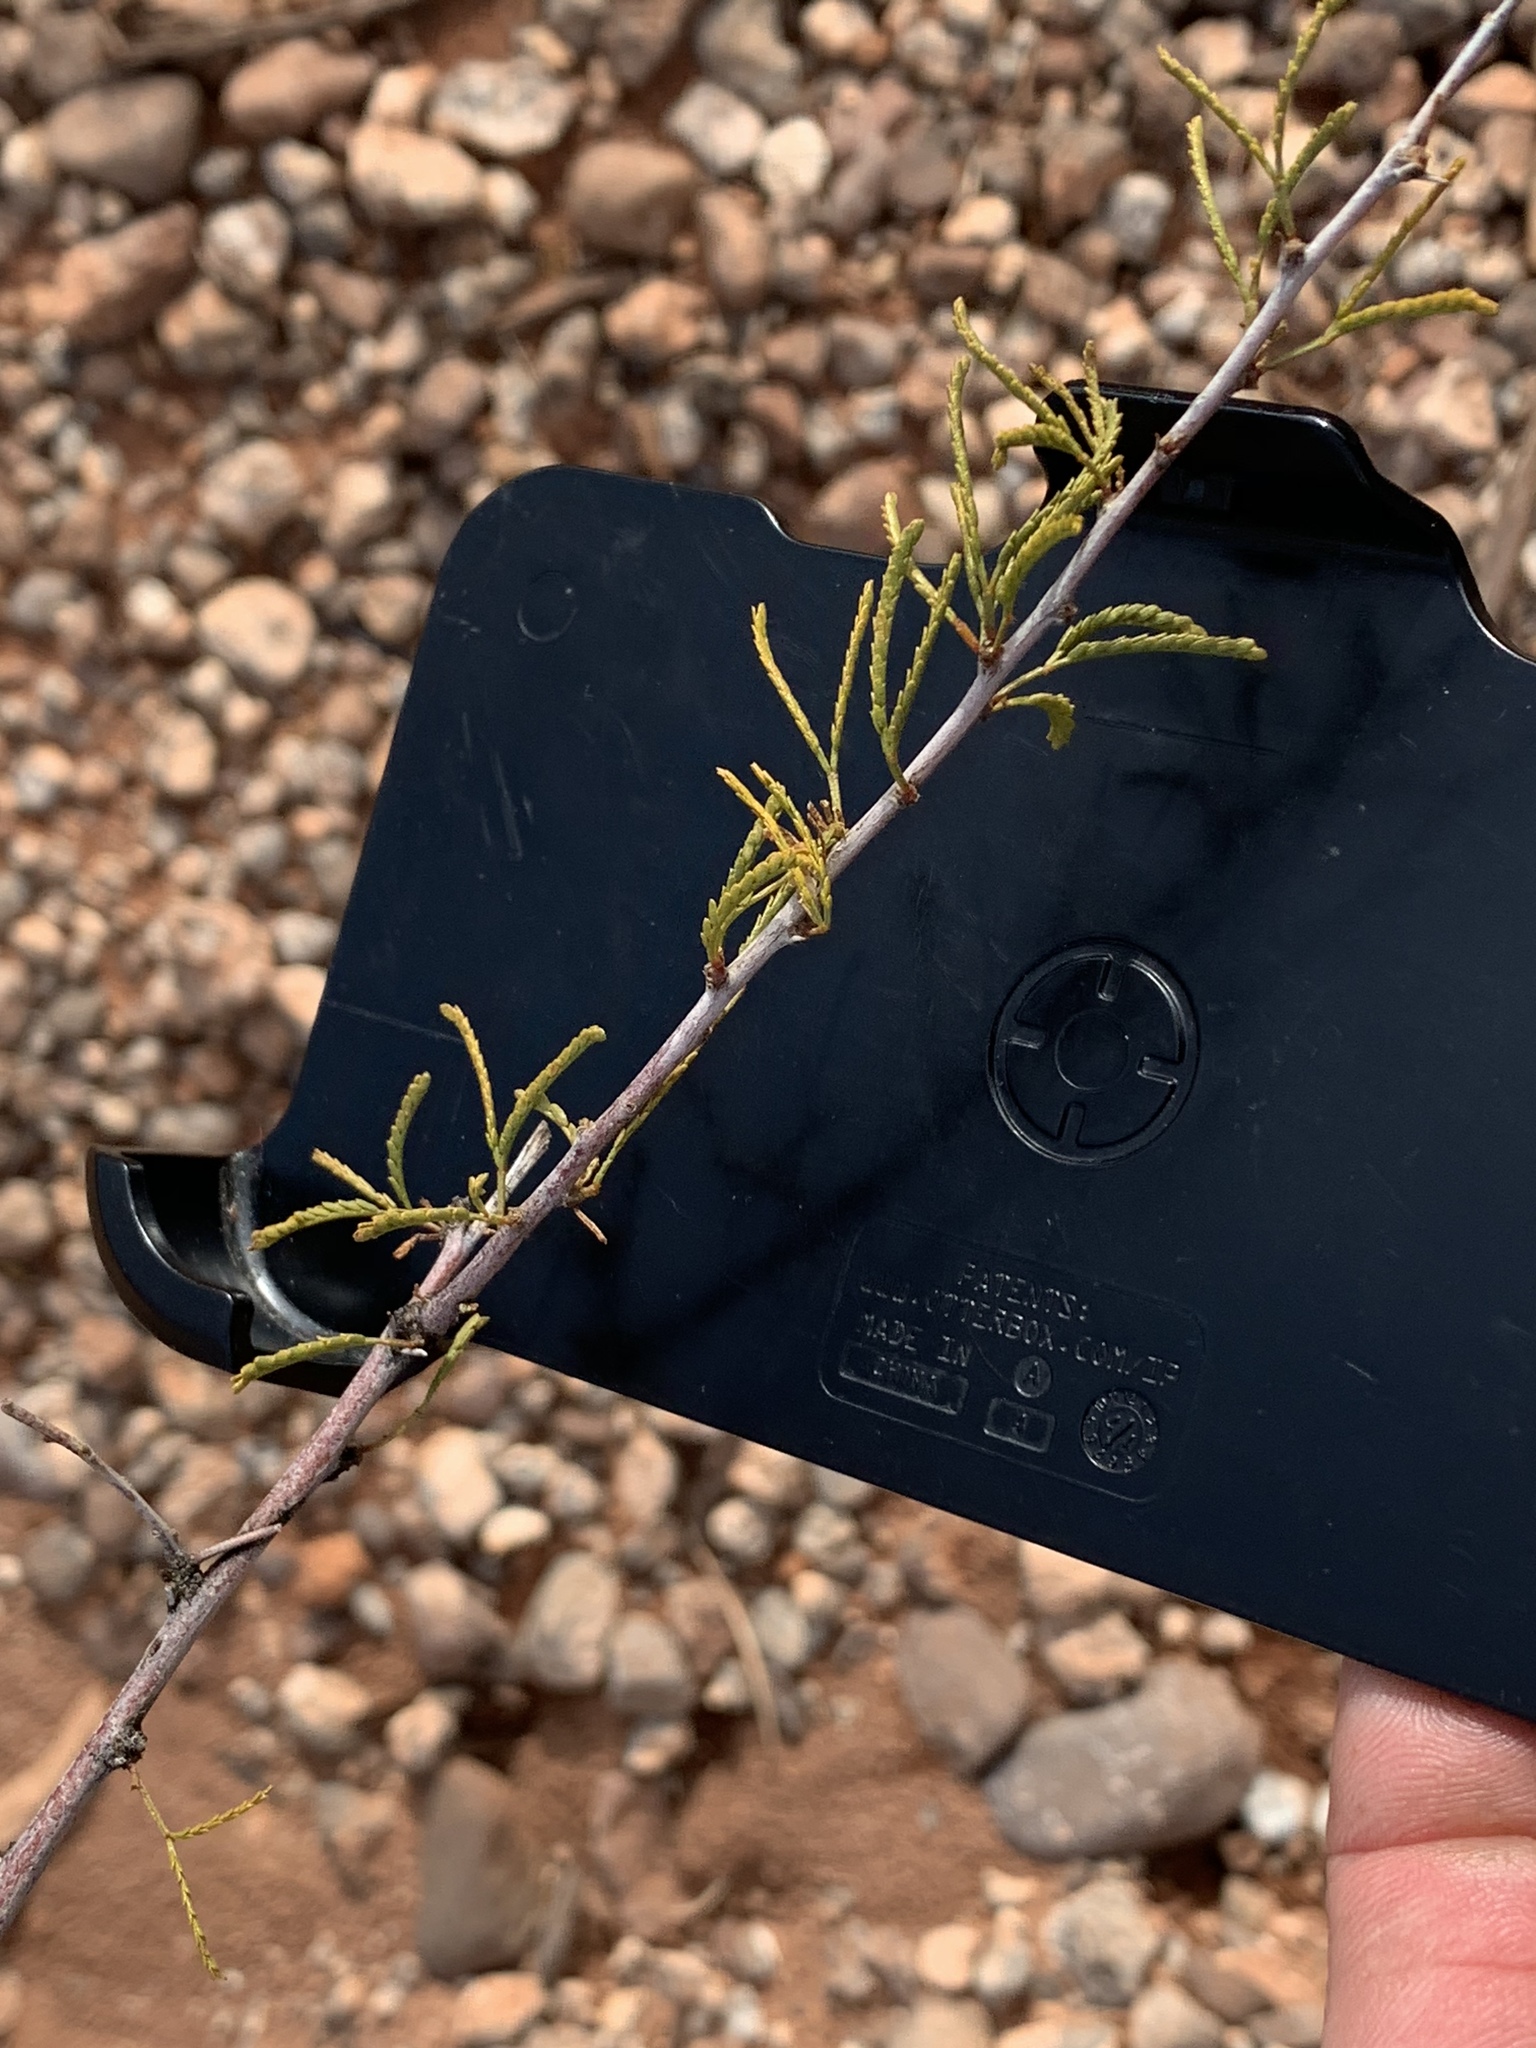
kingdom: Plantae
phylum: Tracheophyta
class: Magnoliopsida
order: Fabales
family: Fabaceae
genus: Vachellia
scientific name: Vachellia constricta
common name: Mescat acacia
